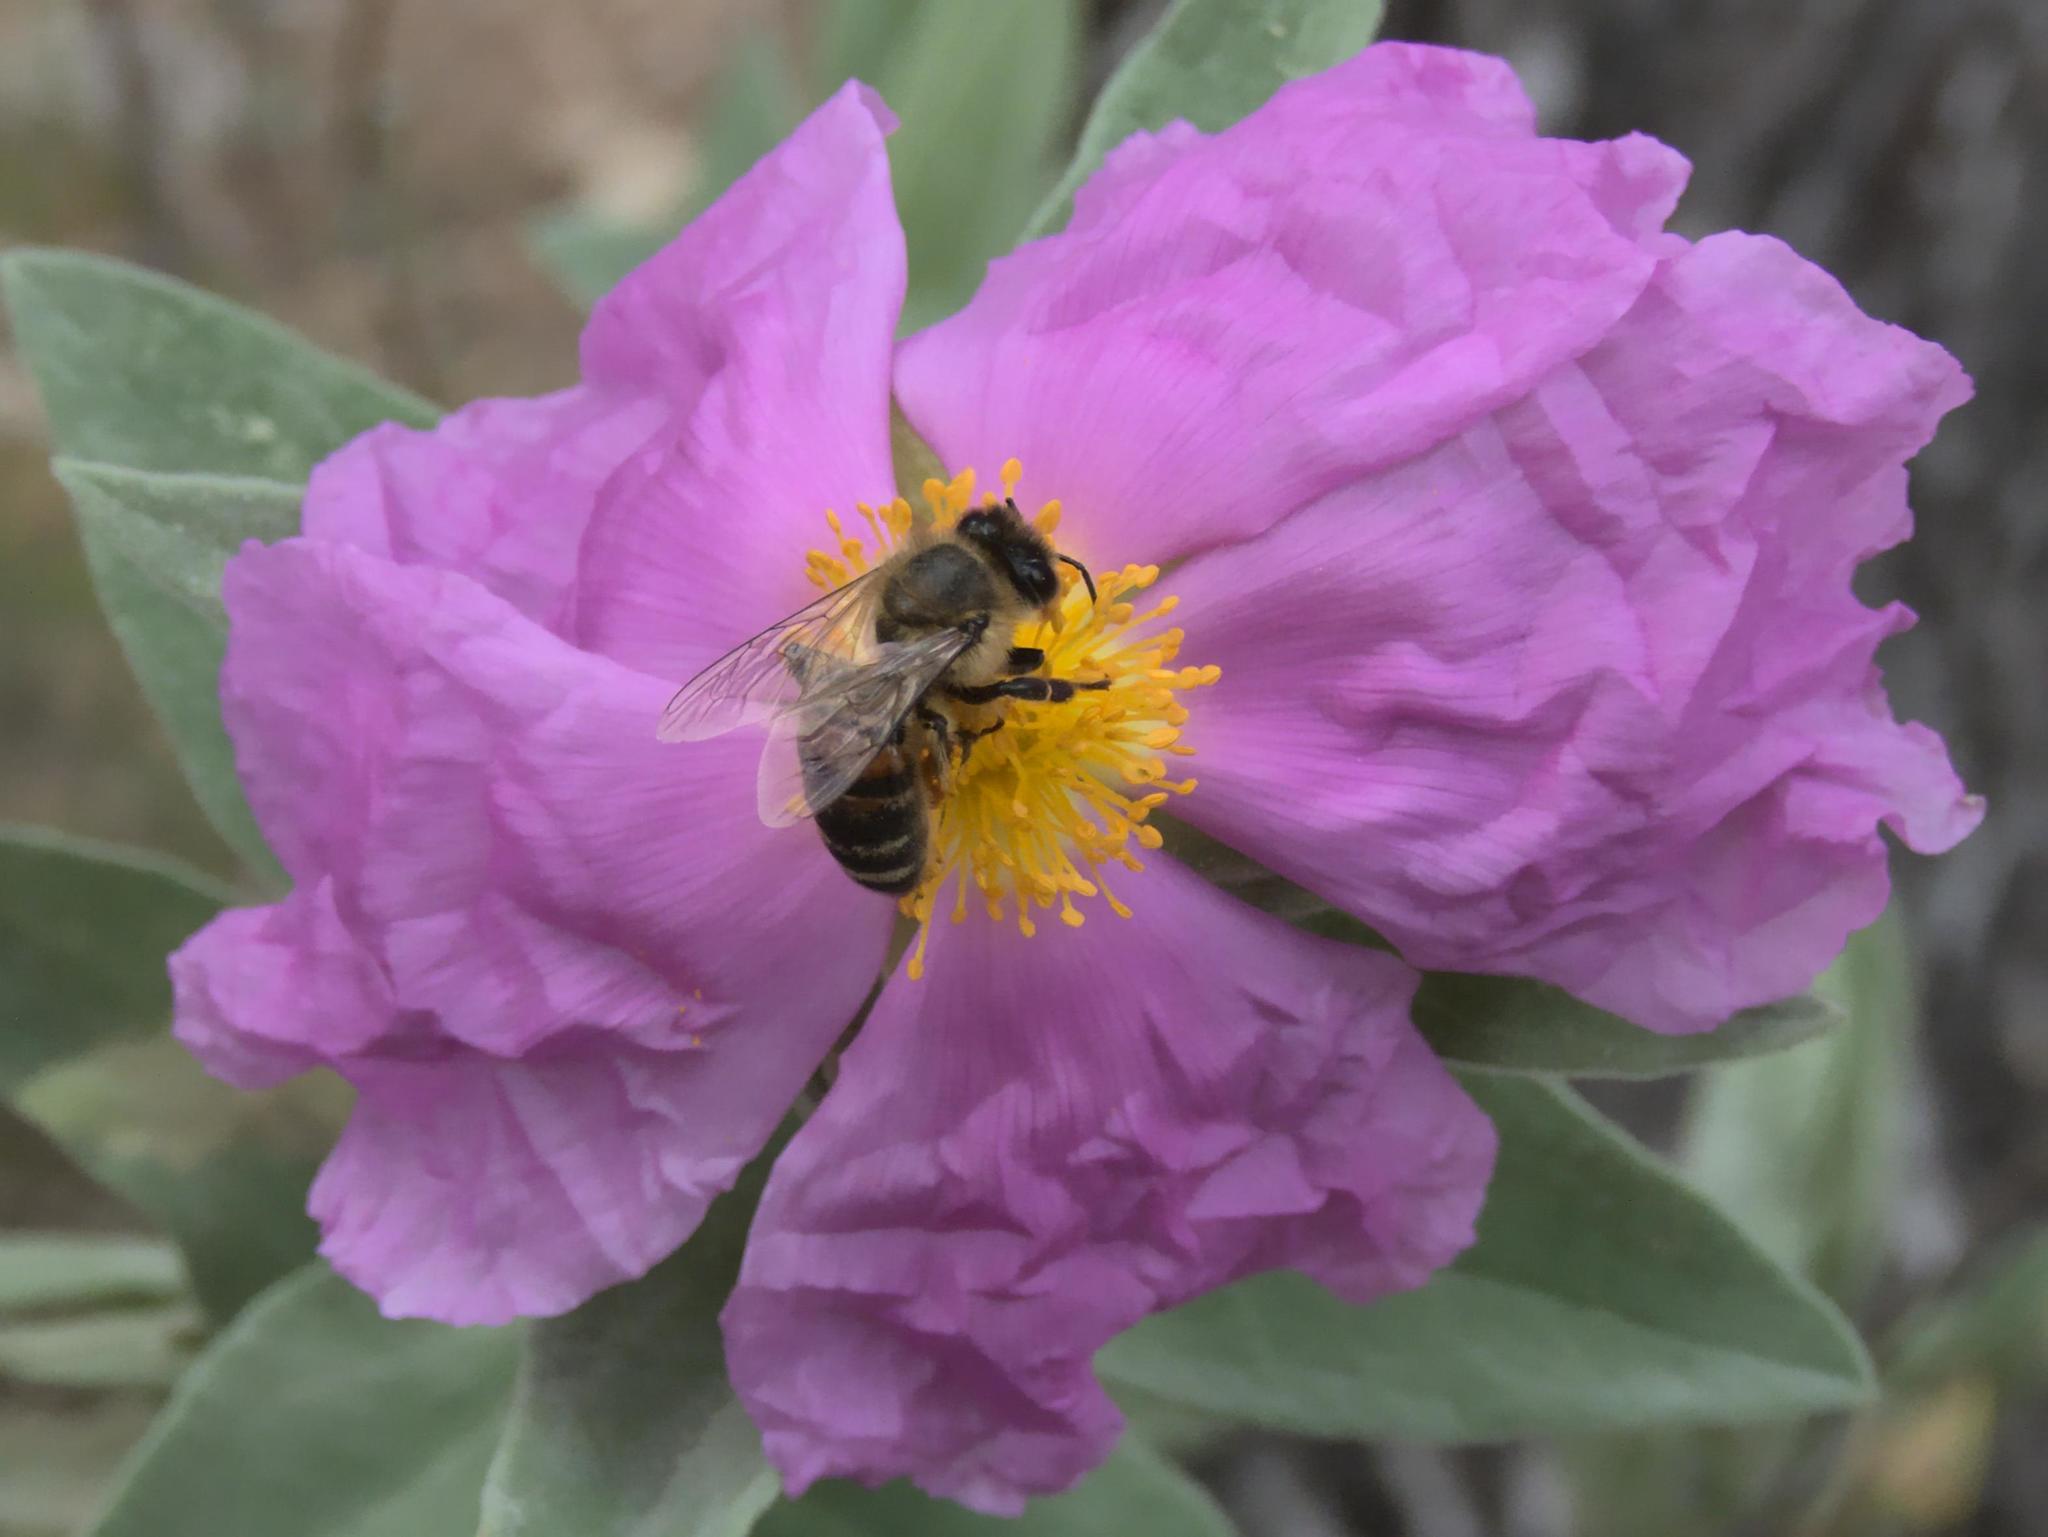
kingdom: Animalia
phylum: Arthropoda
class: Insecta
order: Hymenoptera
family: Apidae
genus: Apis
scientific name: Apis mellifera
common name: Honey bee
